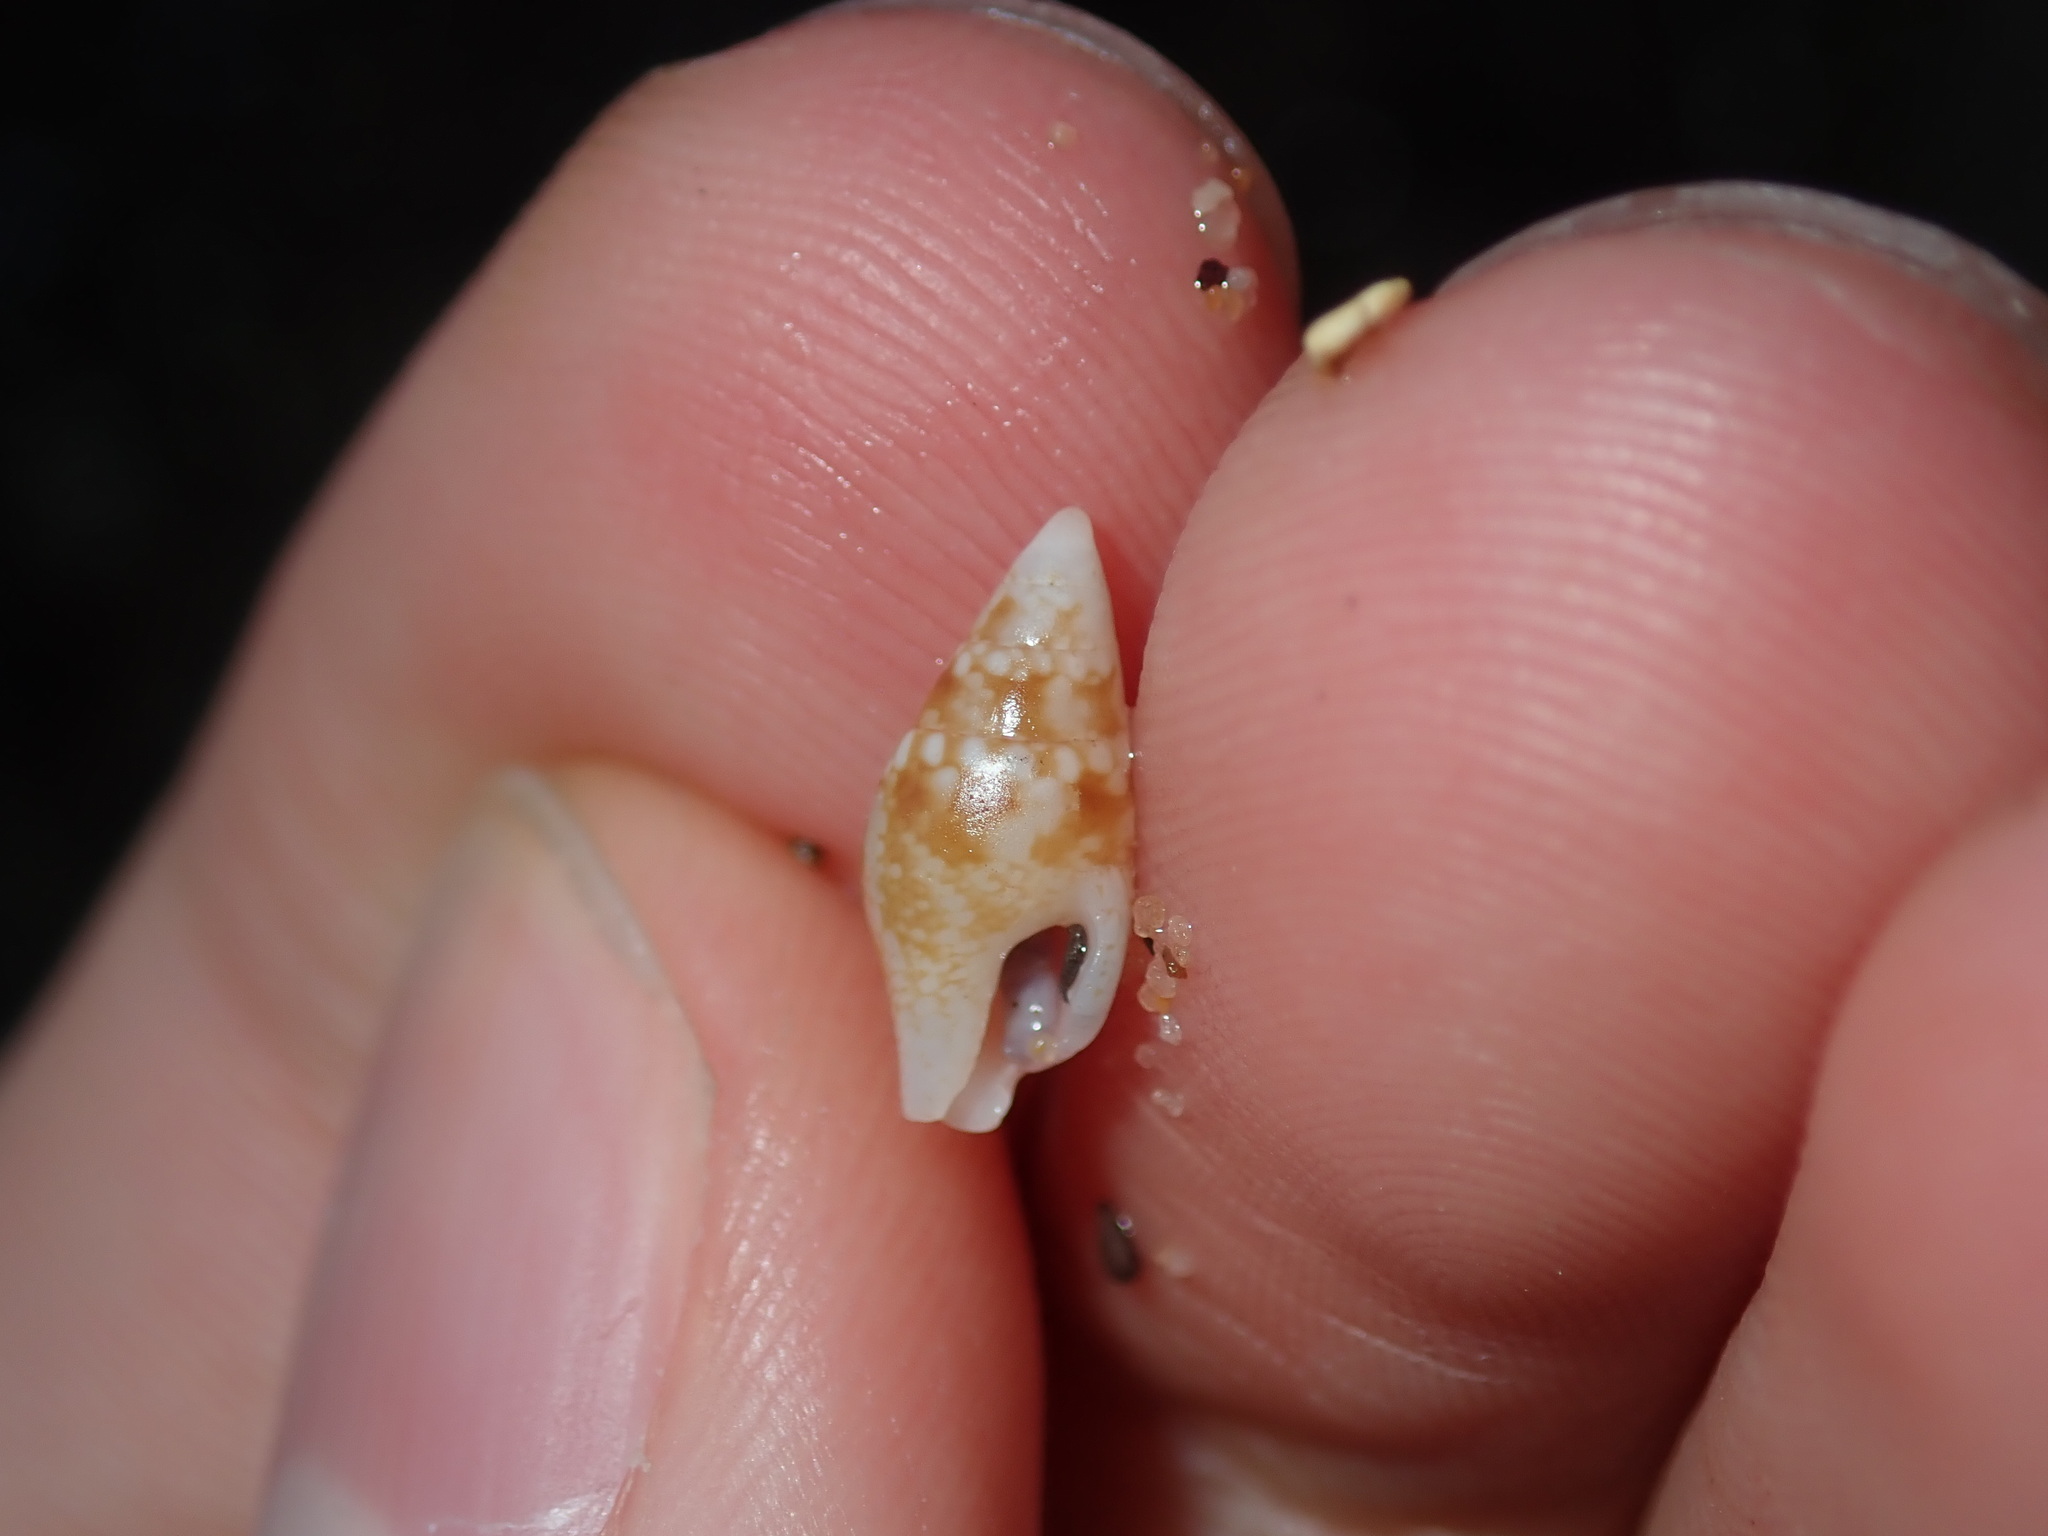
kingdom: Animalia
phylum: Mollusca
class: Gastropoda
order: Neogastropoda
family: Columbellidae
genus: Mitrella
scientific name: Mitrella tayloriana
